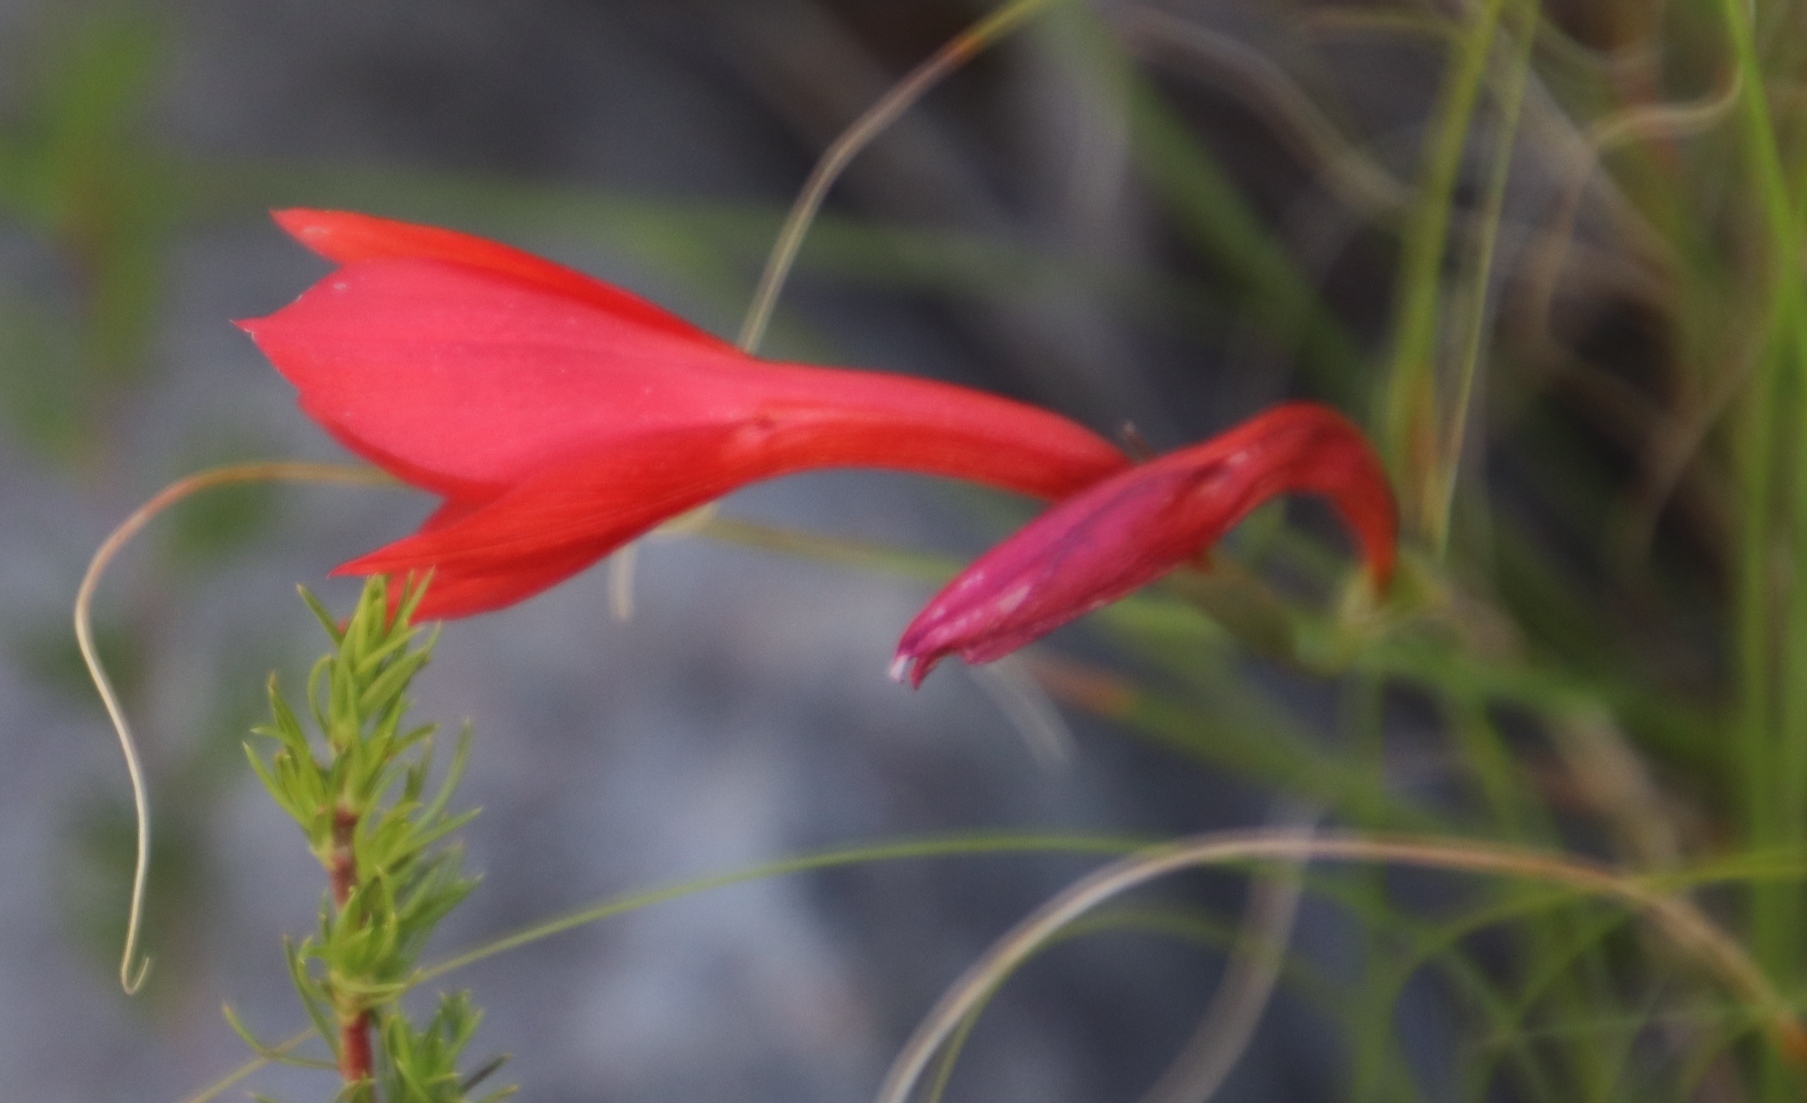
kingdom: Plantae
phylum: Tracheophyta
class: Liliopsida
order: Asparagales
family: Iridaceae
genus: Gladiolus
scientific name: Gladiolus priorii
